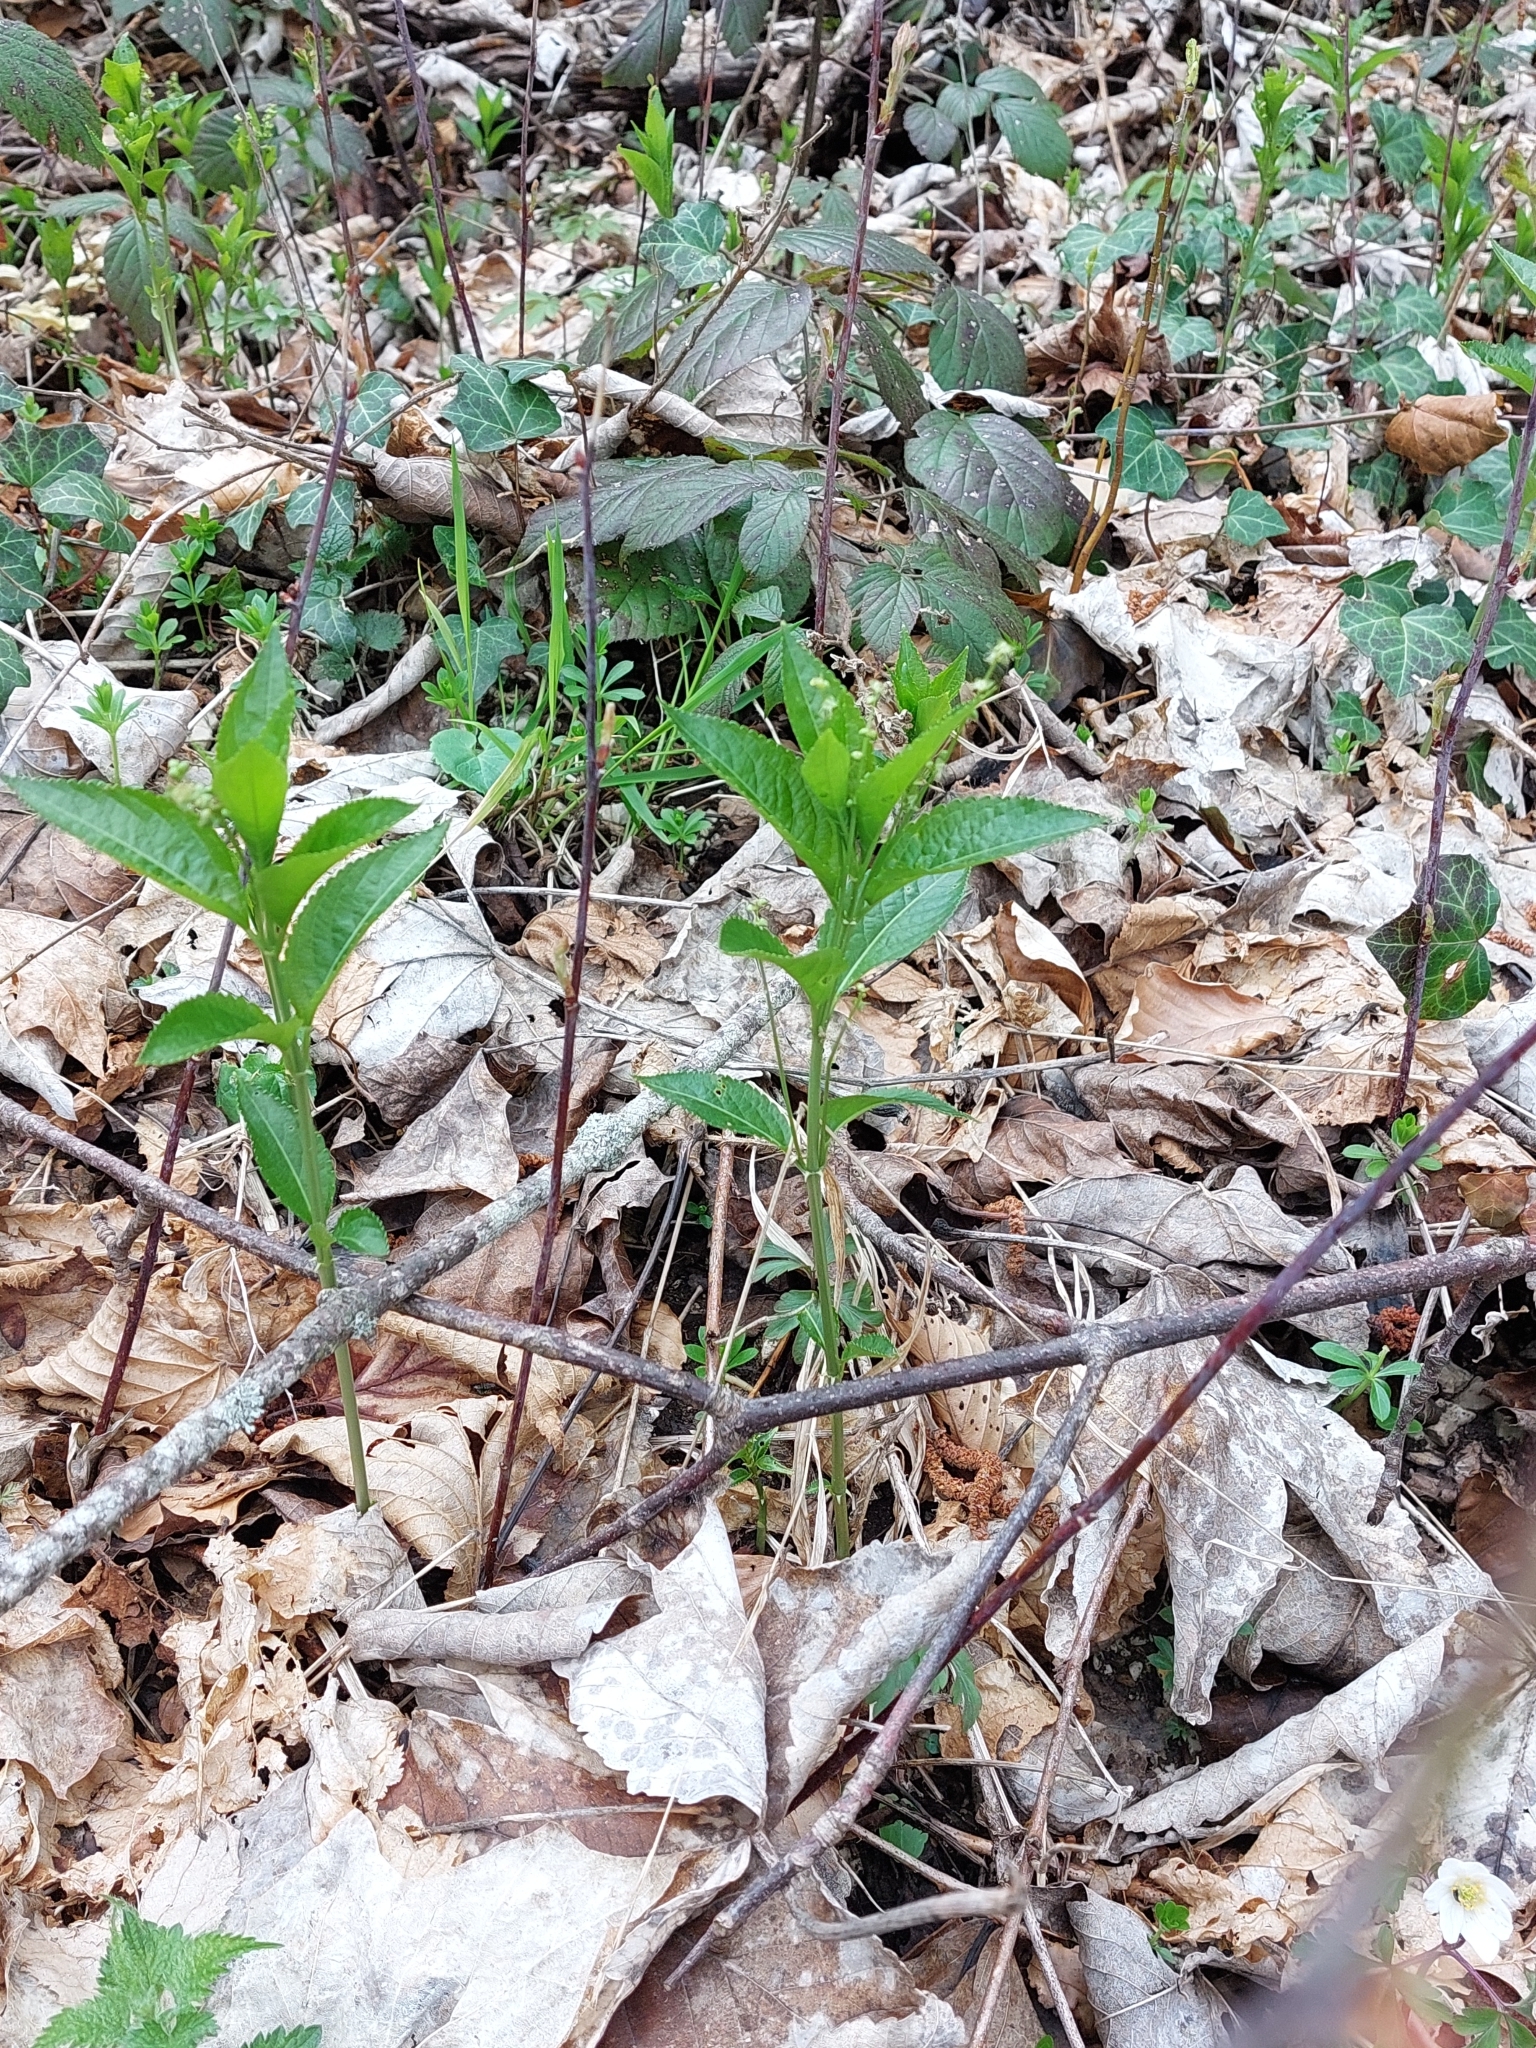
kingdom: Plantae
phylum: Tracheophyta
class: Magnoliopsida
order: Malpighiales
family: Euphorbiaceae
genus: Mercurialis
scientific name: Mercurialis perennis
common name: Dog mercury
